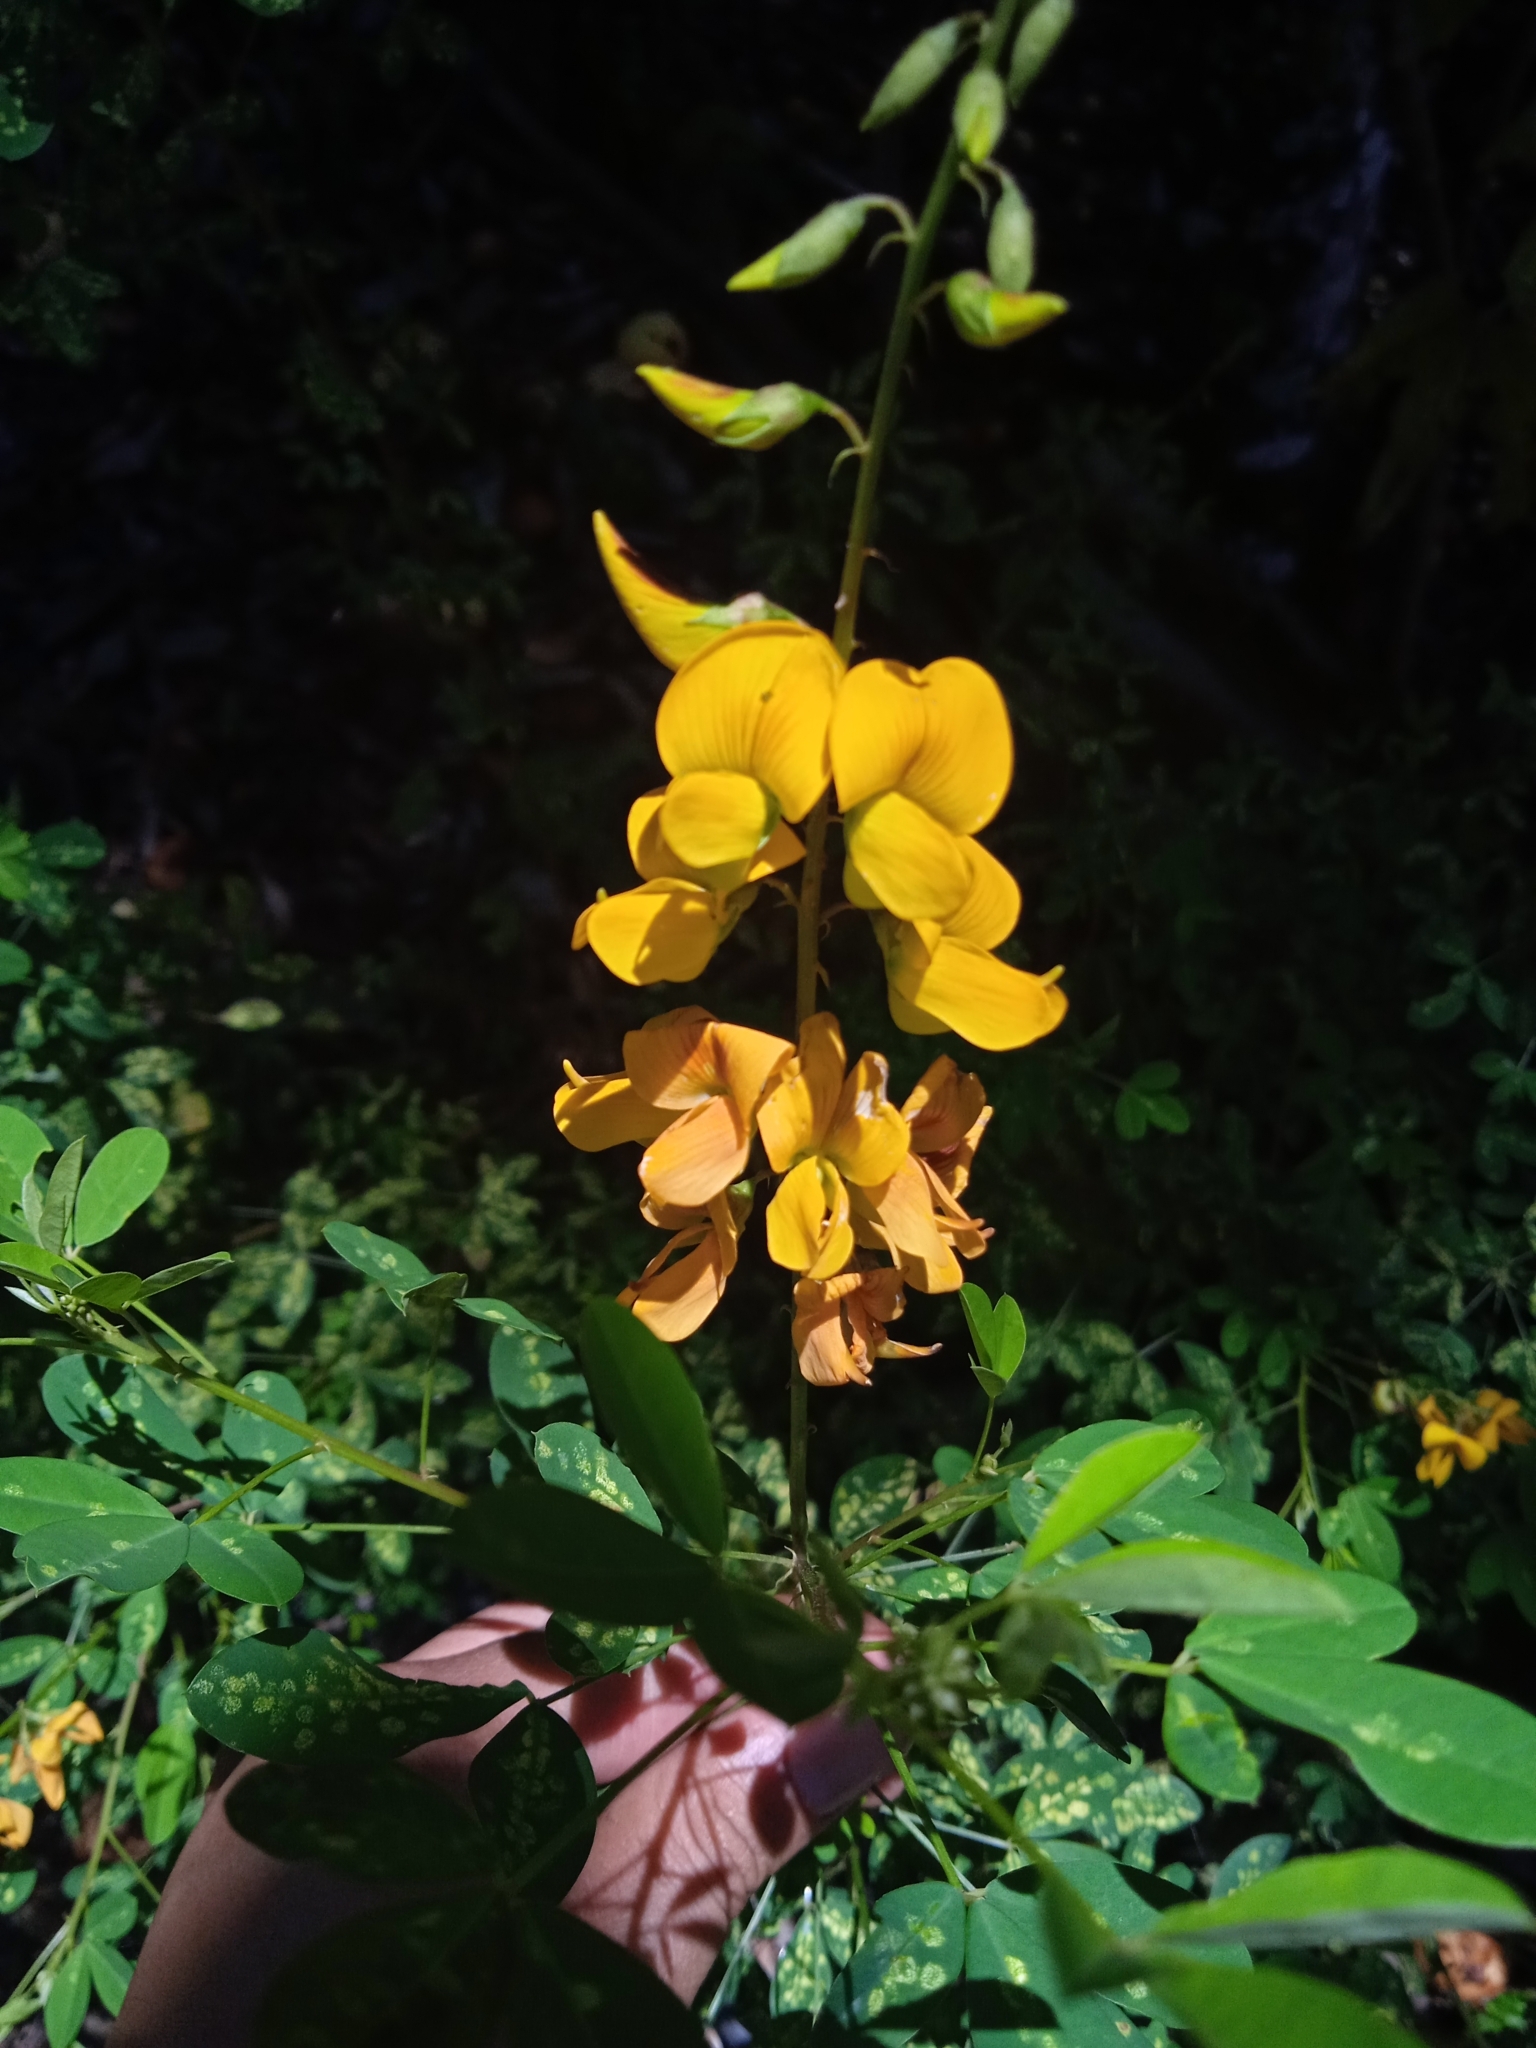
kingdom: Plantae
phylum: Tracheophyta
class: Magnoliopsida
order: Fabales
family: Fabaceae
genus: Crotalaria
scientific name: Crotalaria pumila
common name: Low rattlebox
